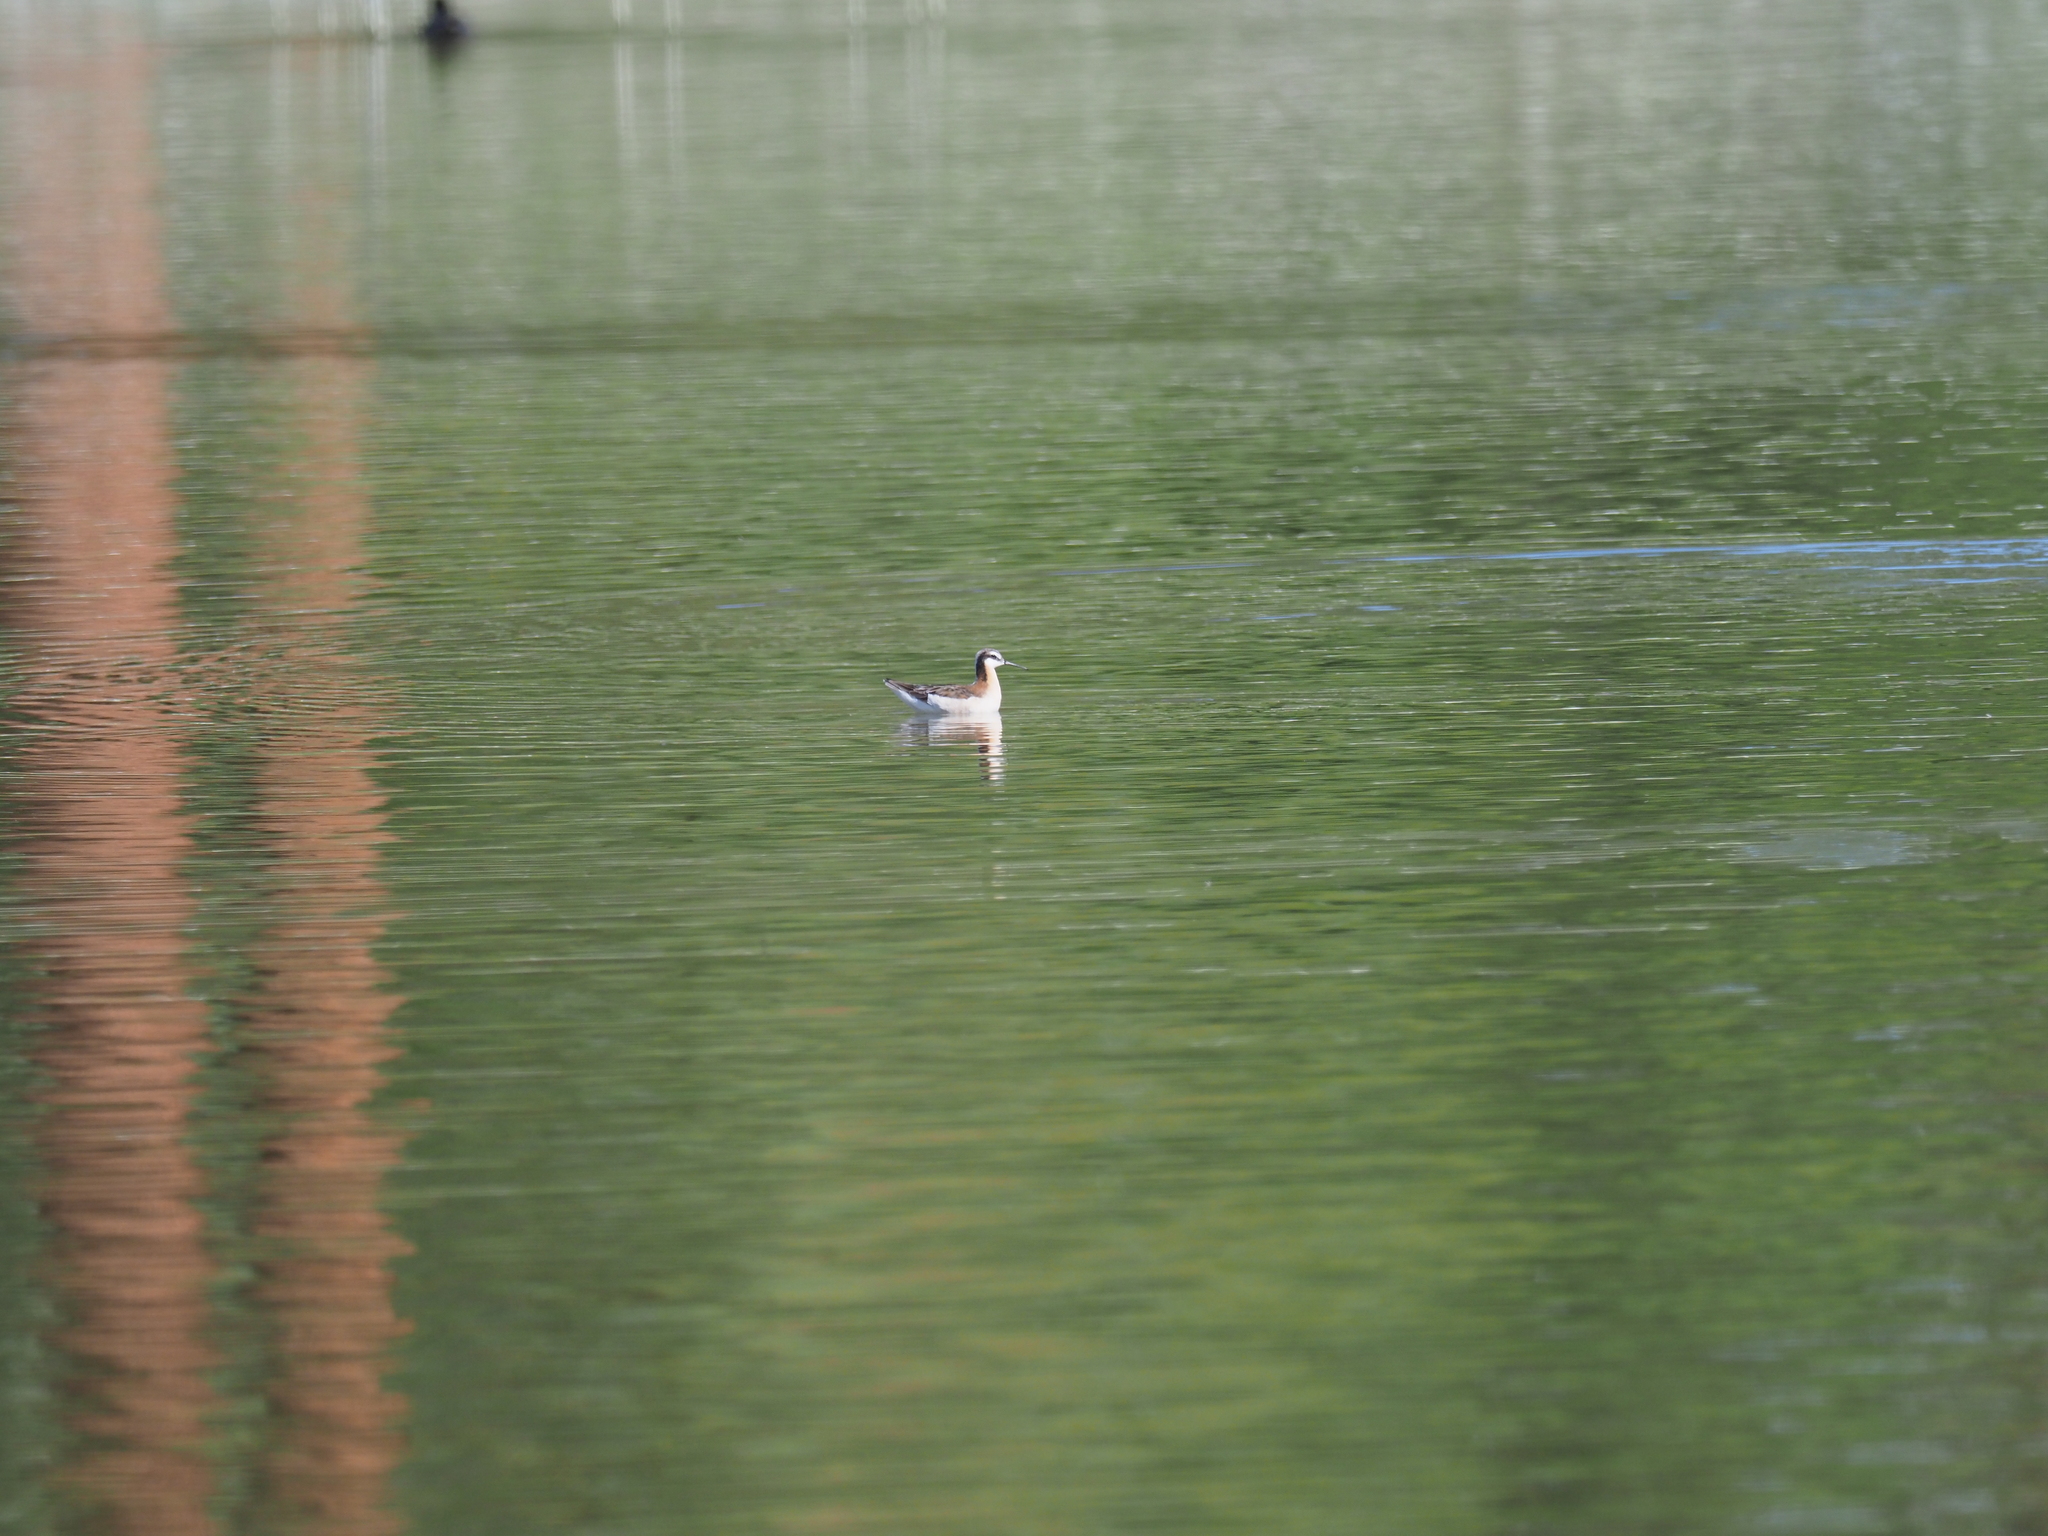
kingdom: Animalia
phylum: Chordata
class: Aves
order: Charadriiformes
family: Scolopacidae
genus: Phalaropus
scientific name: Phalaropus tricolor
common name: Wilson's phalarope
